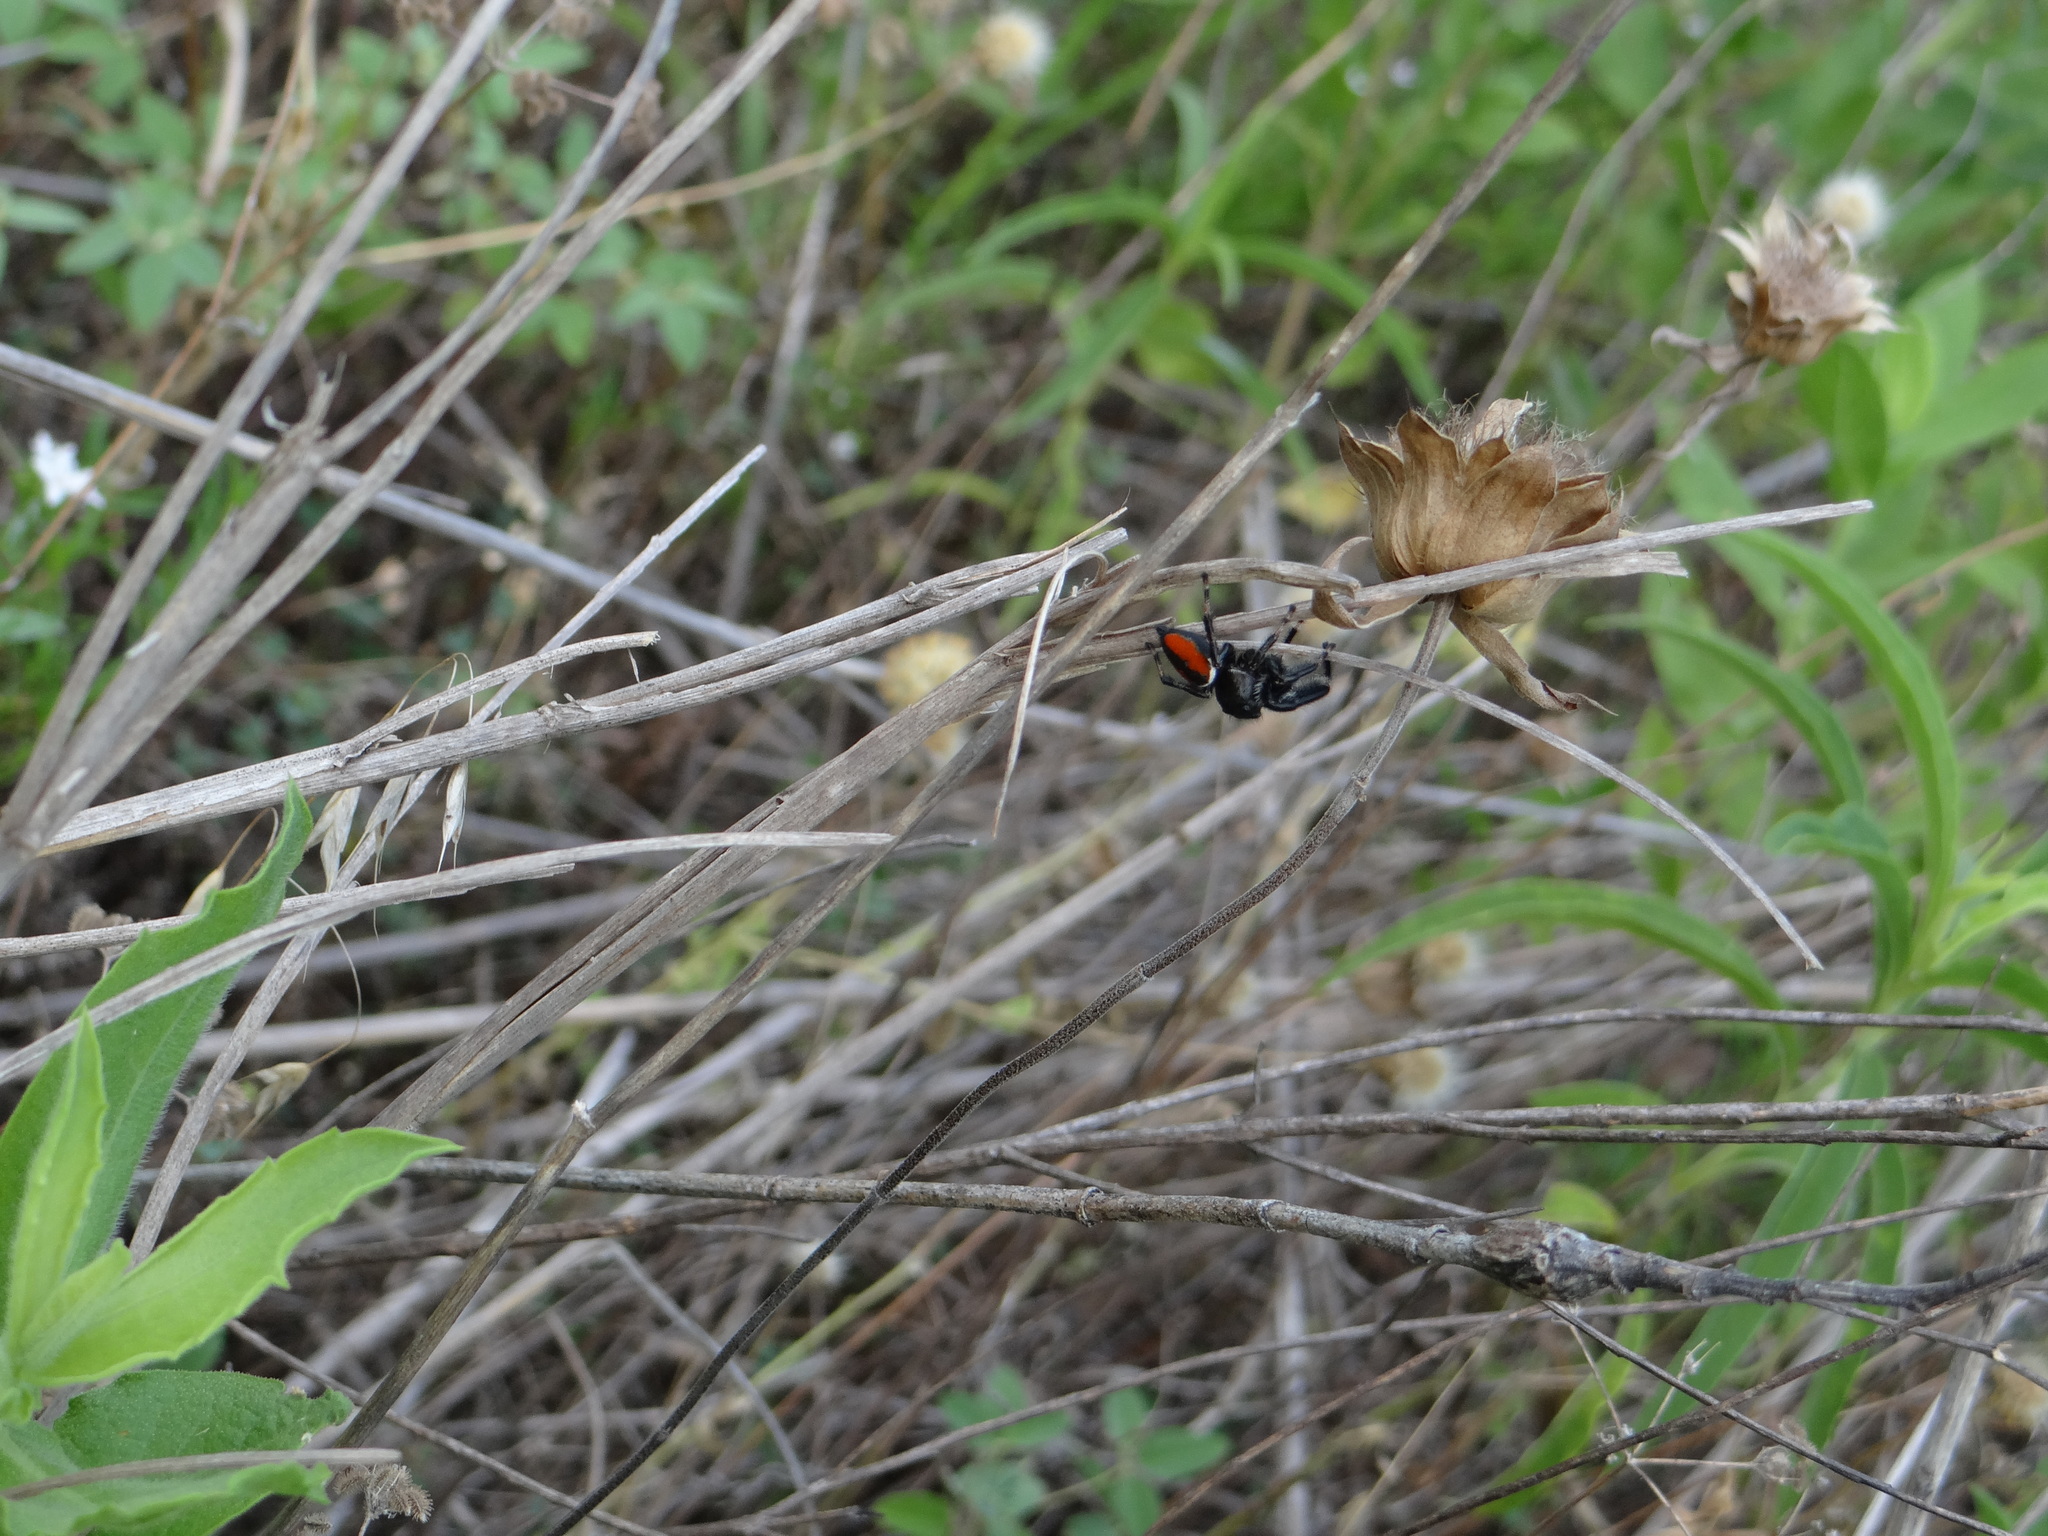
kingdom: Animalia
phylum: Arthropoda
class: Arachnida
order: Araneae
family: Salticidae
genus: Phidippus
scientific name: Phidippus clarus
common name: Brilliant jumping spider
